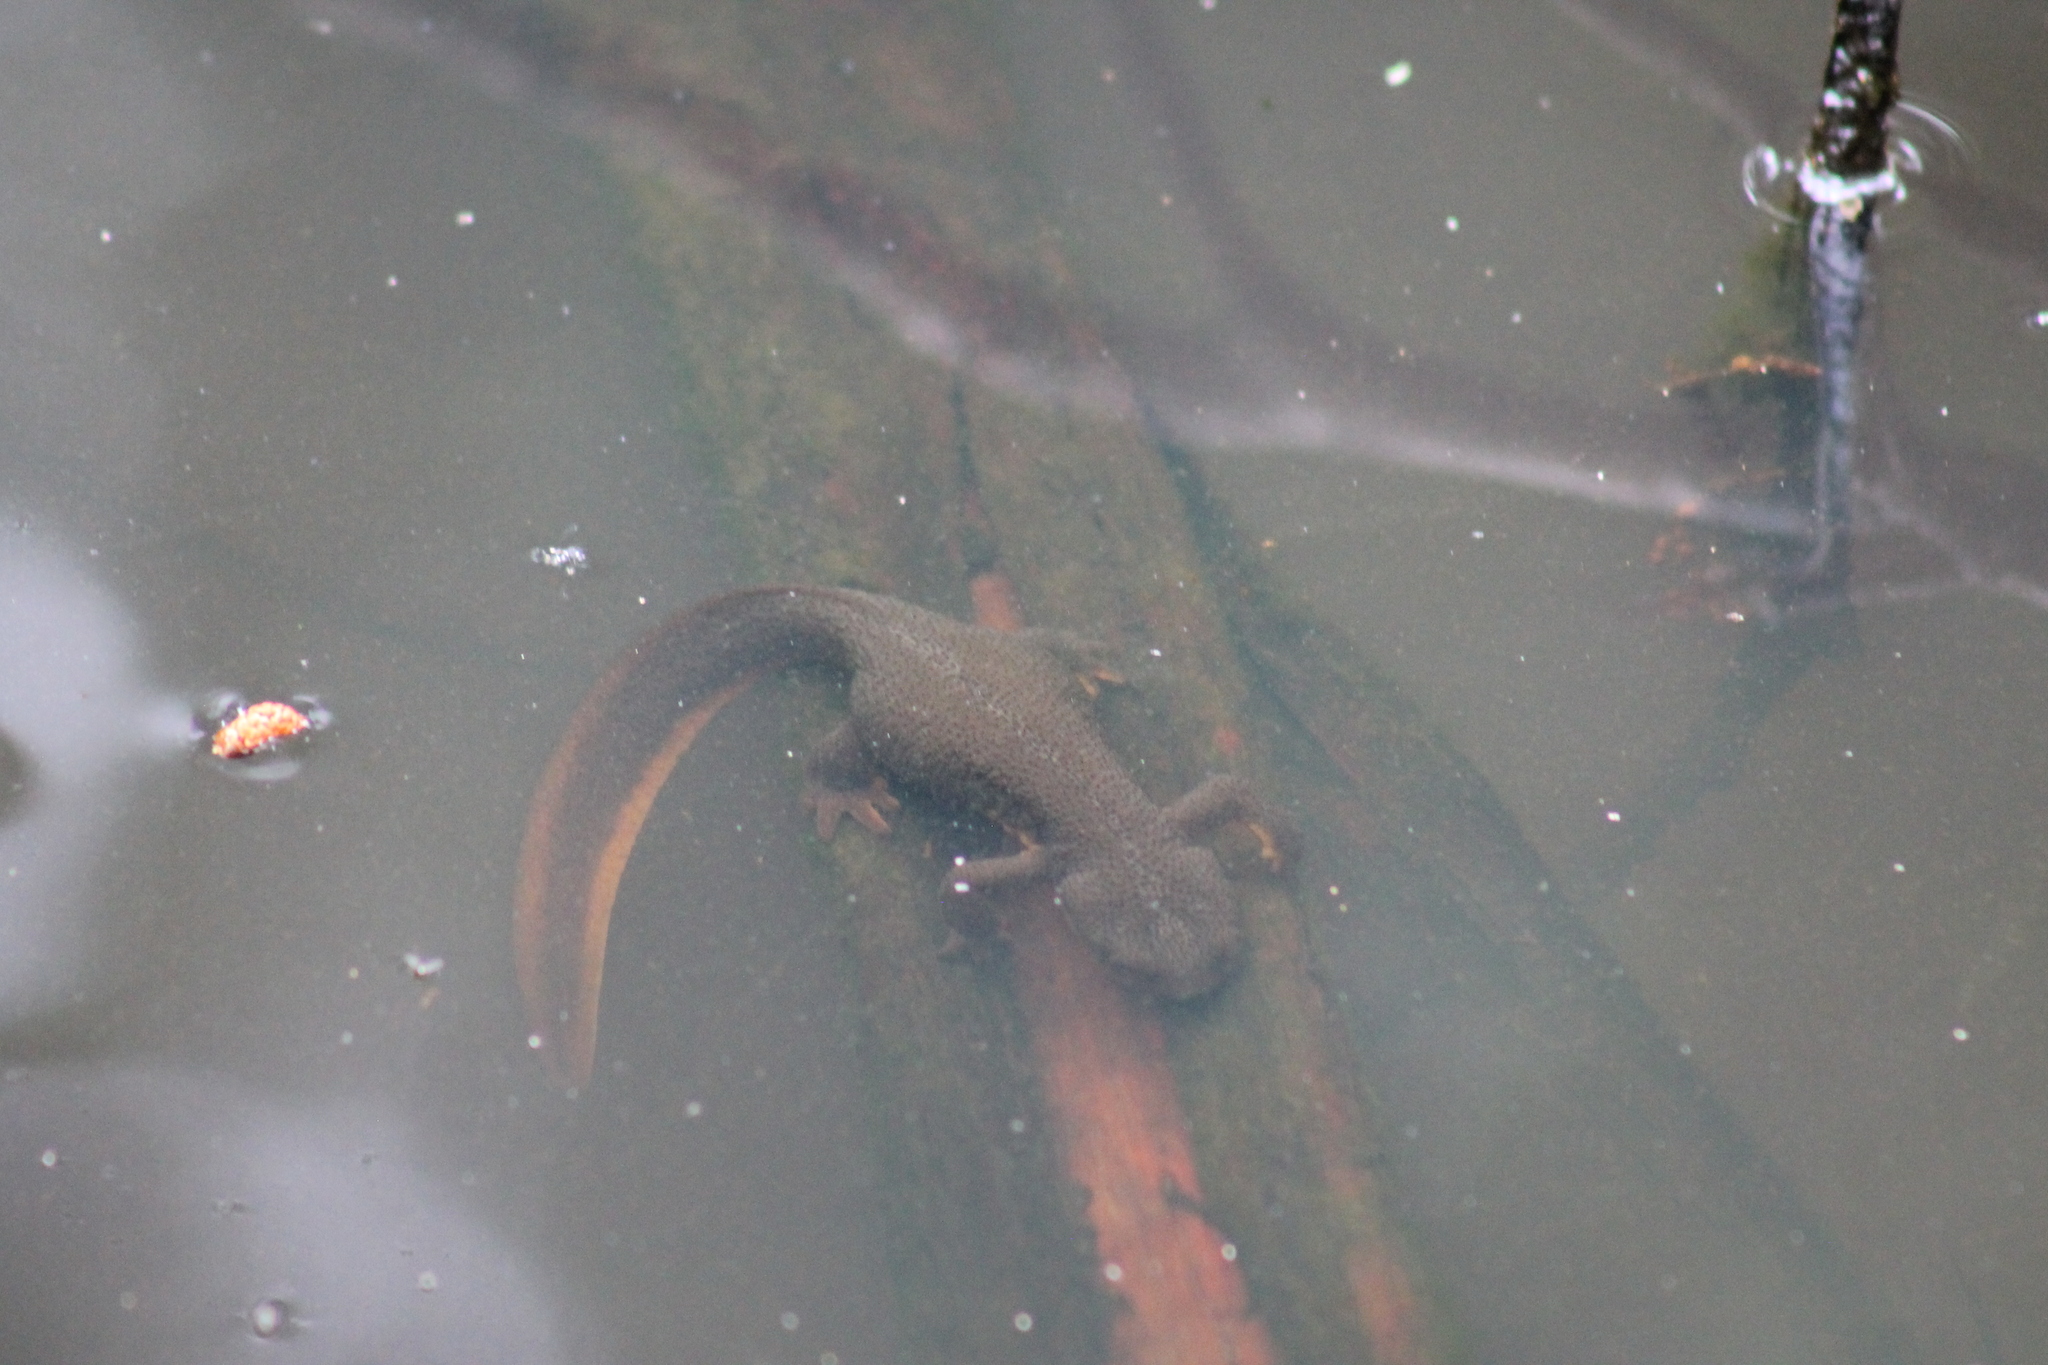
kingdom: Animalia
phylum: Chordata
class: Amphibia
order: Caudata
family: Salamandridae
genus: Taricha
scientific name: Taricha granulosa
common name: Roughskin newt
